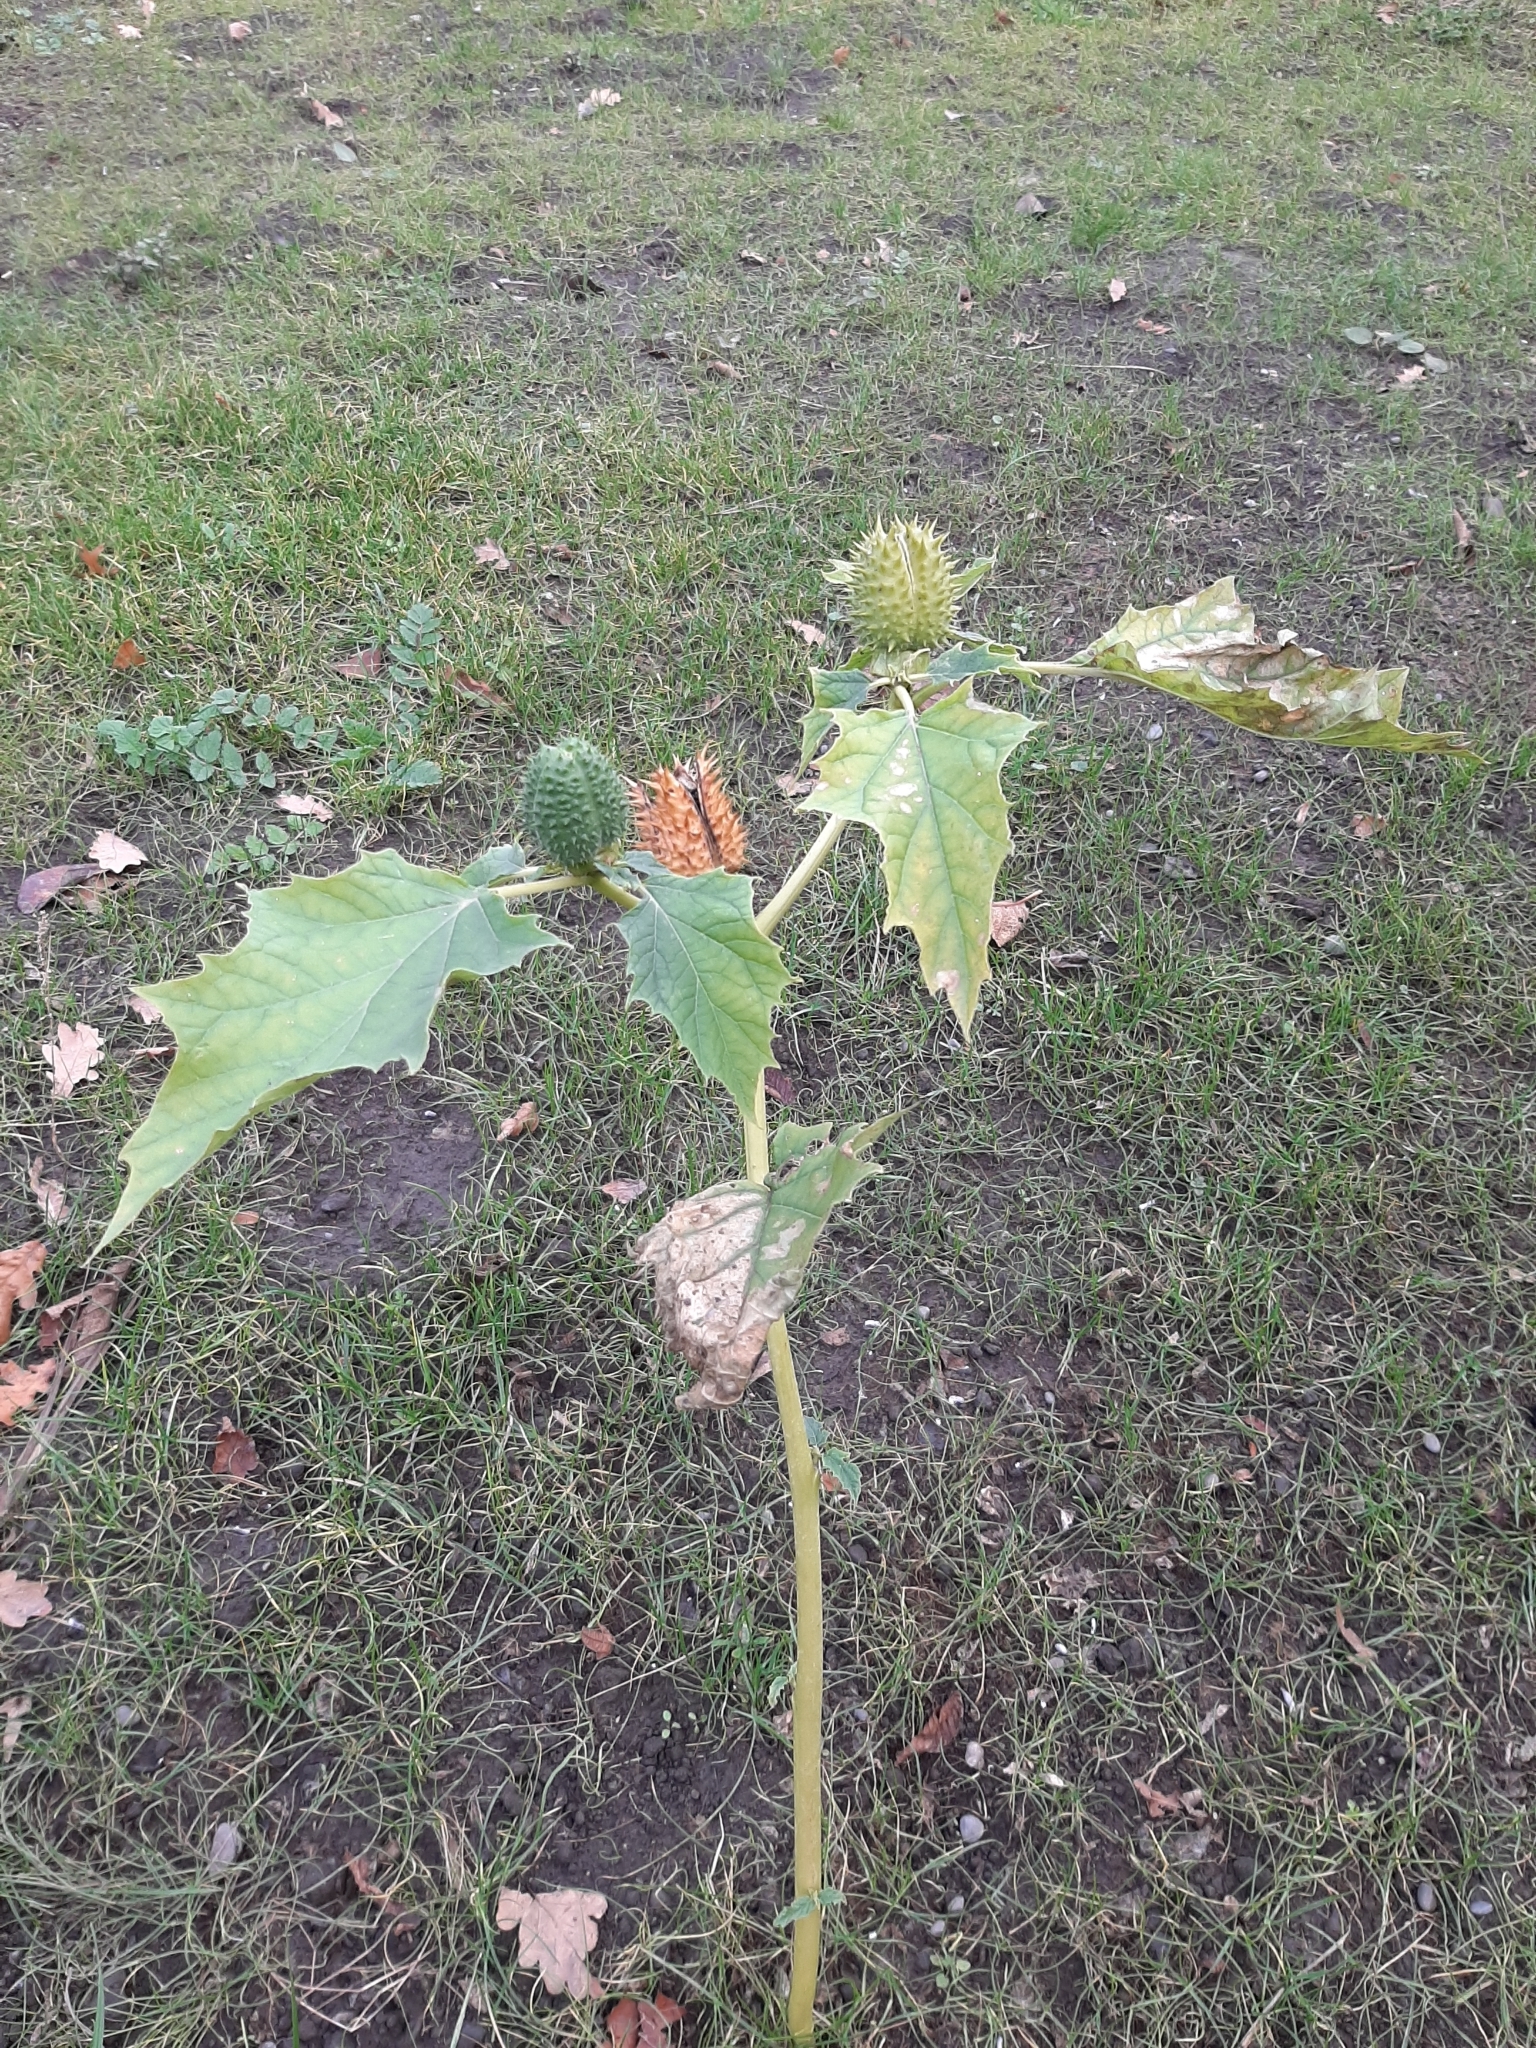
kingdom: Plantae
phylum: Tracheophyta
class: Magnoliopsida
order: Solanales
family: Solanaceae
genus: Datura
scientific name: Datura stramonium
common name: Thorn-apple
